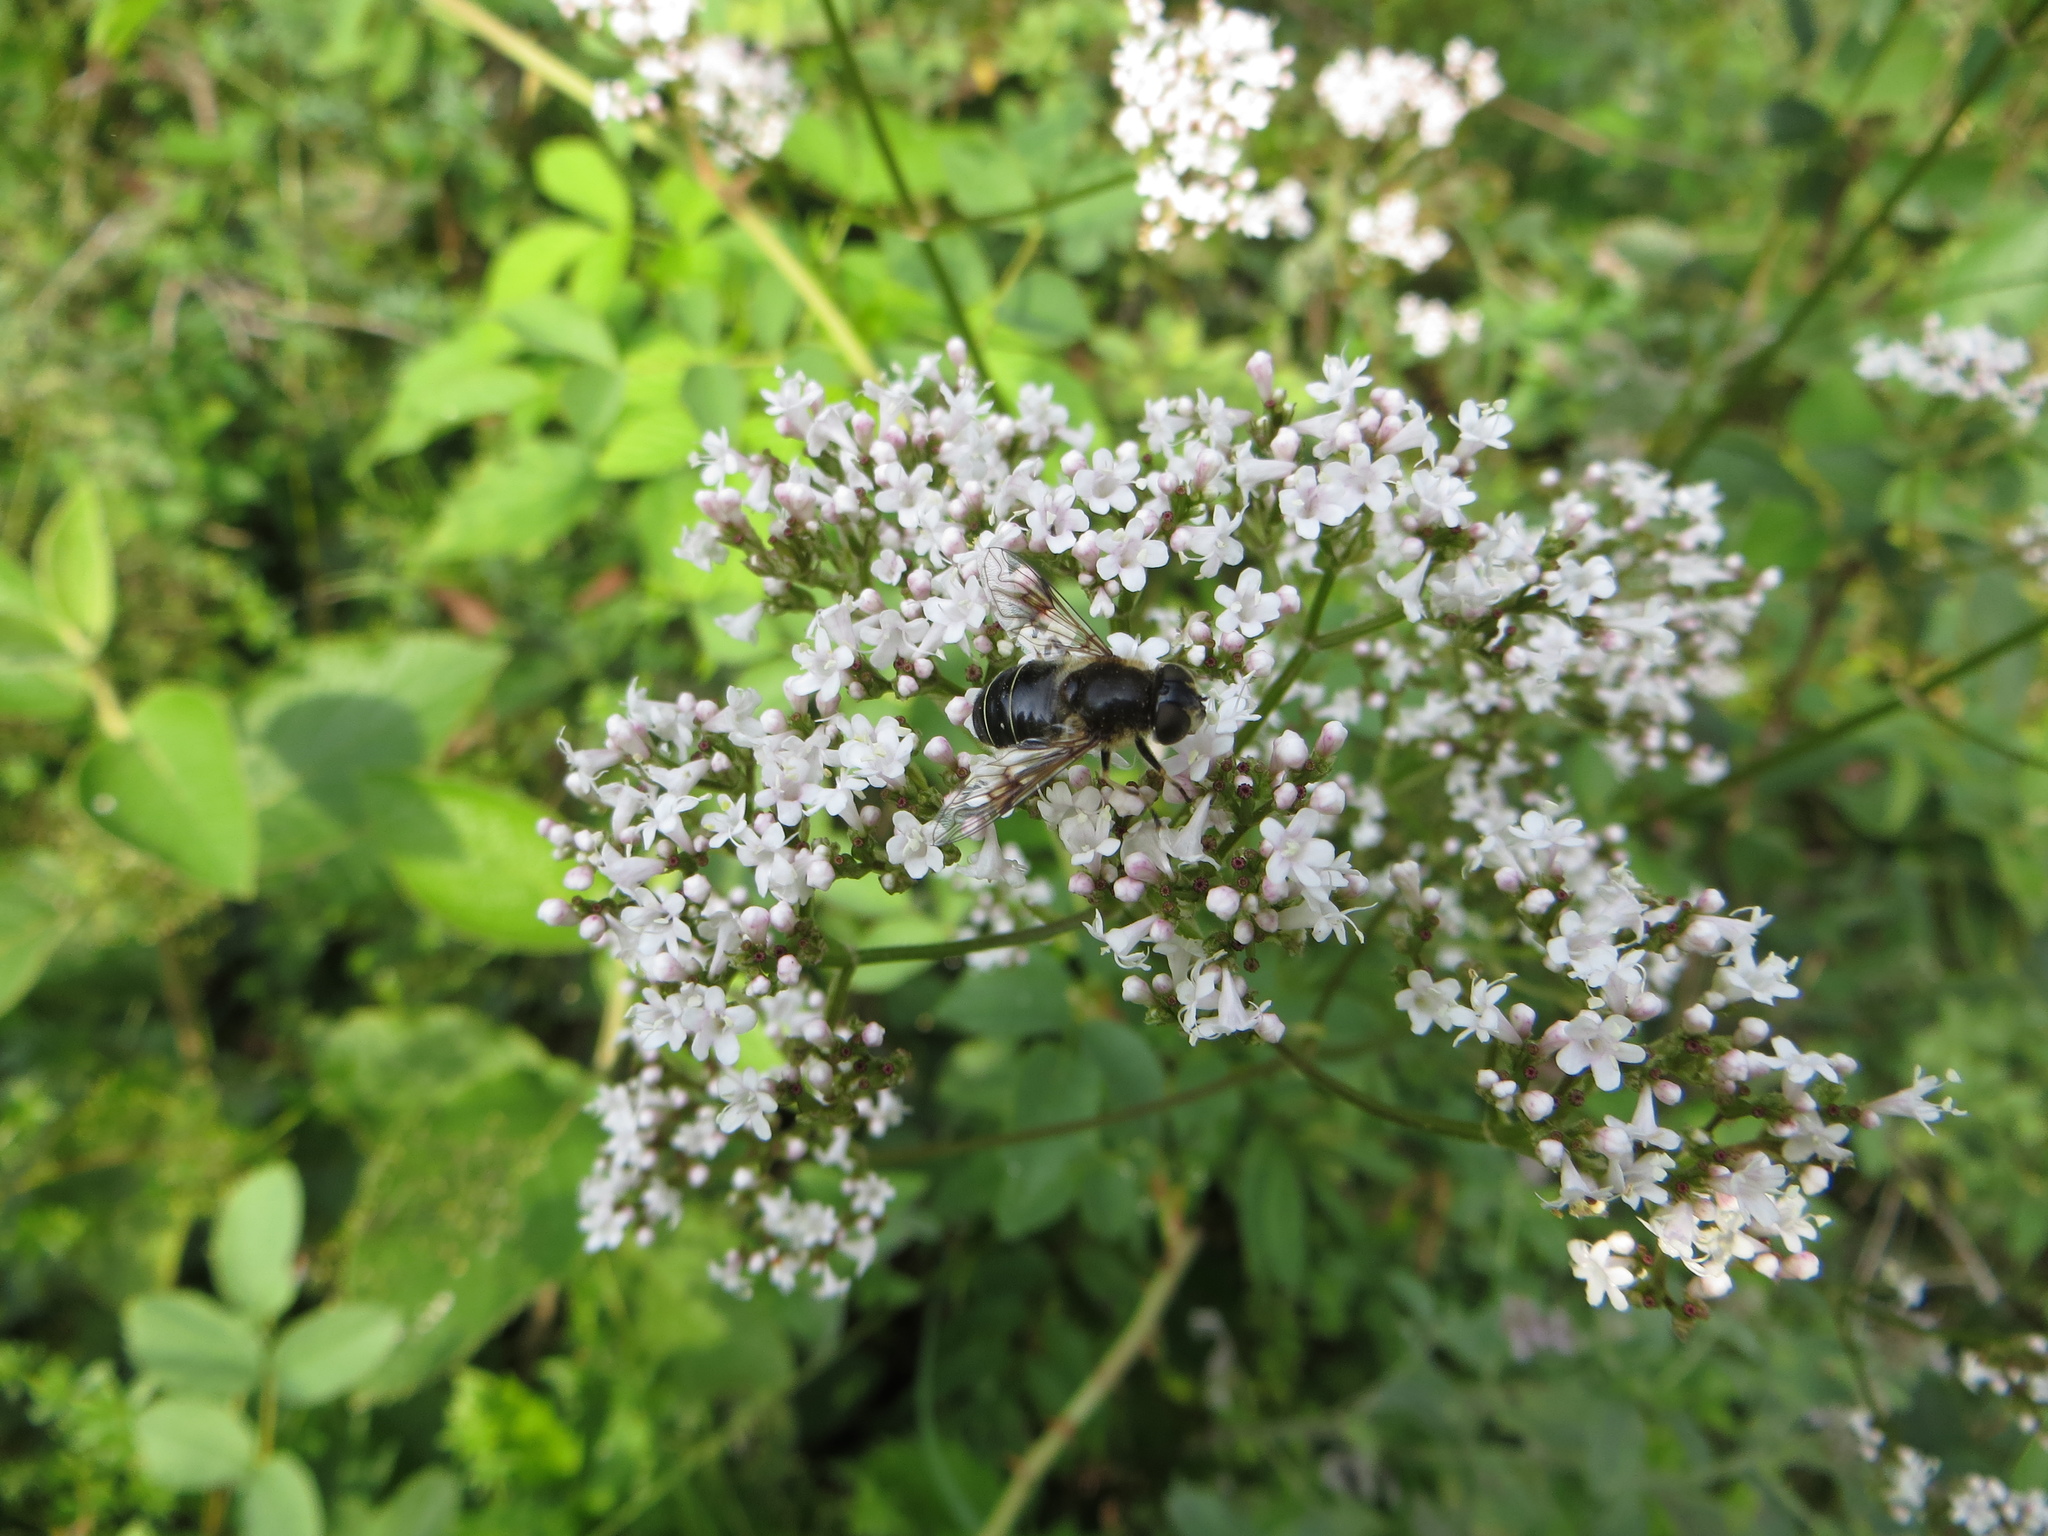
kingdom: Animalia
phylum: Arthropoda
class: Insecta
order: Diptera
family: Syrphidae
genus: Eristalis
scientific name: Eristalis rupium
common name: Hover fly
